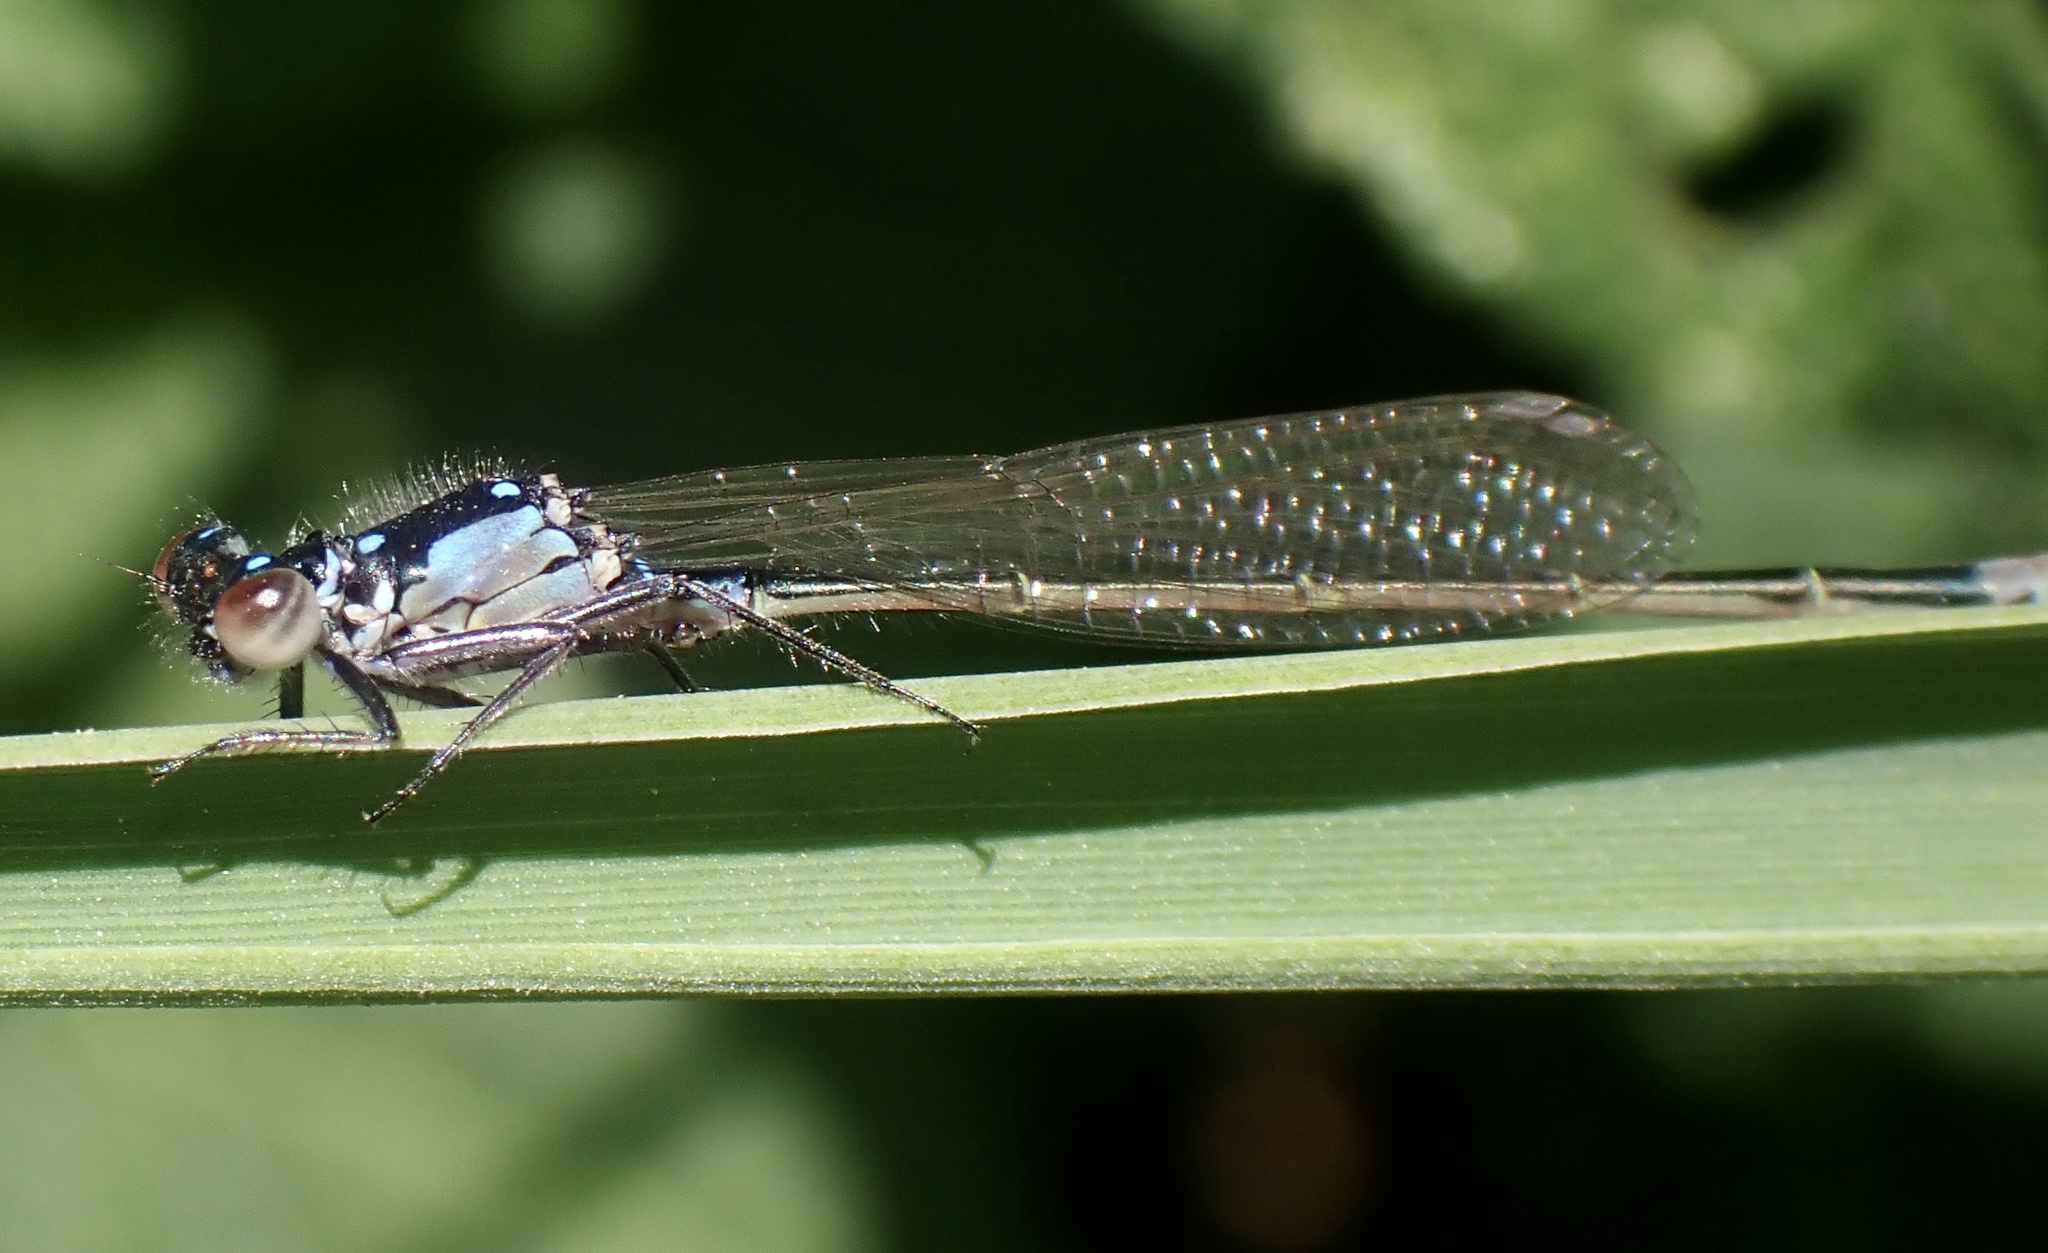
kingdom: Animalia
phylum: Arthropoda
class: Insecta
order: Odonata
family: Coenagrionidae
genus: Ischnura
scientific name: Ischnura cervula
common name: Pacific forktail
